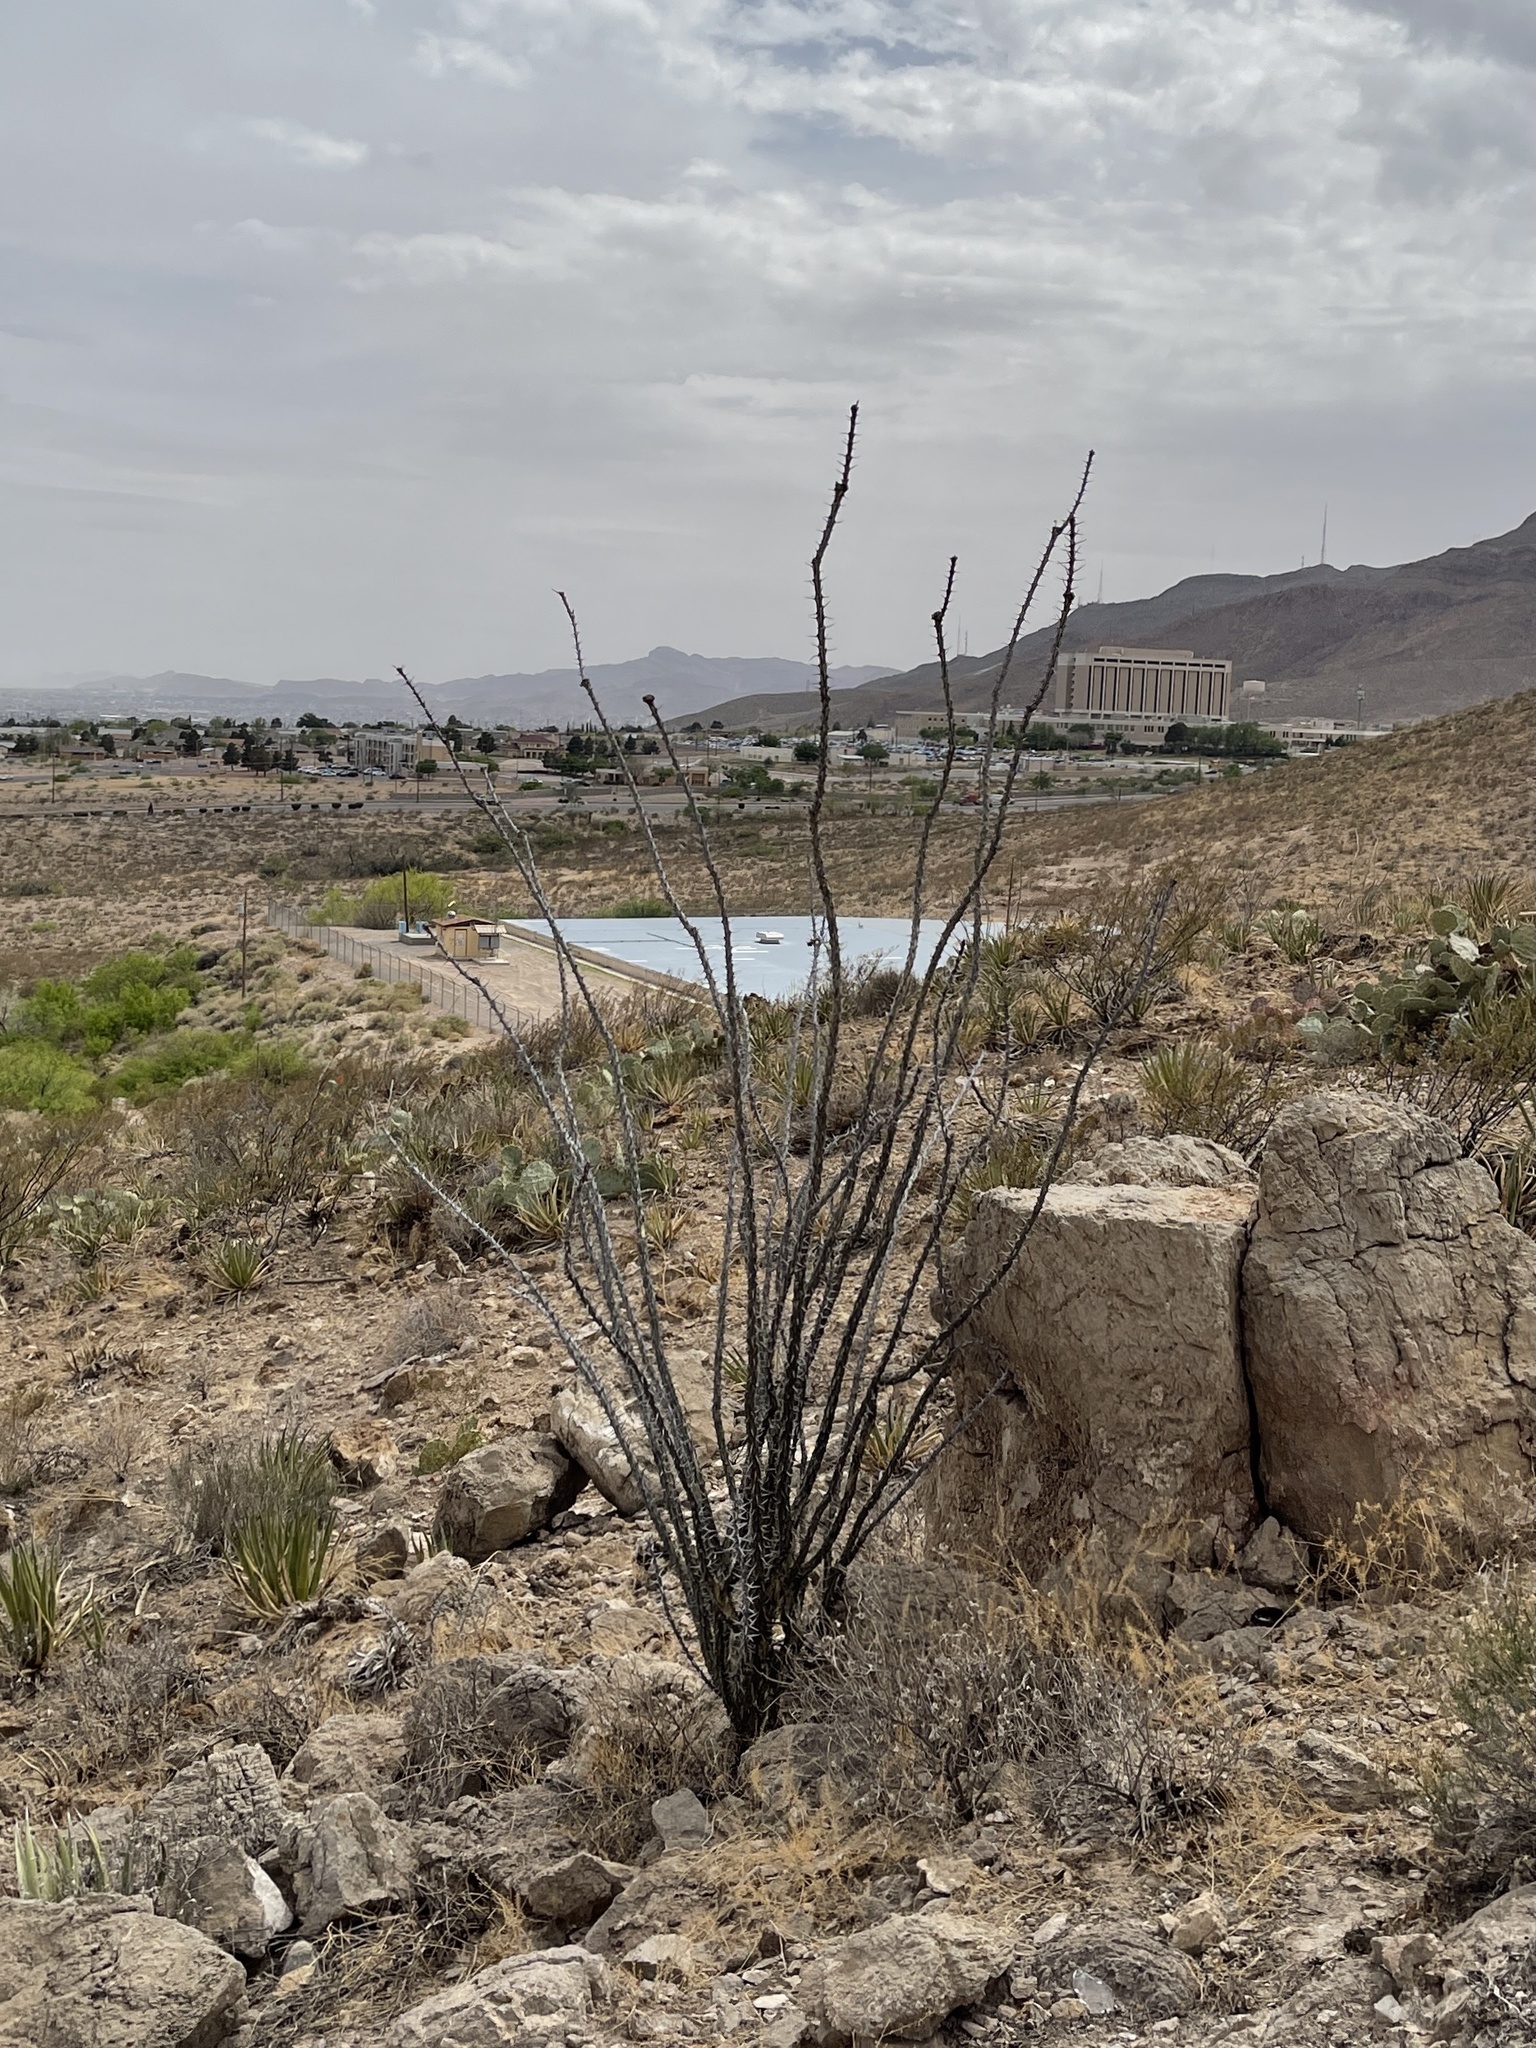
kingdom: Plantae
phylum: Tracheophyta
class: Magnoliopsida
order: Ericales
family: Fouquieriaceae
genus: Fouquieria
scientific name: Fouquieria splendens
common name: Vine-cactus
